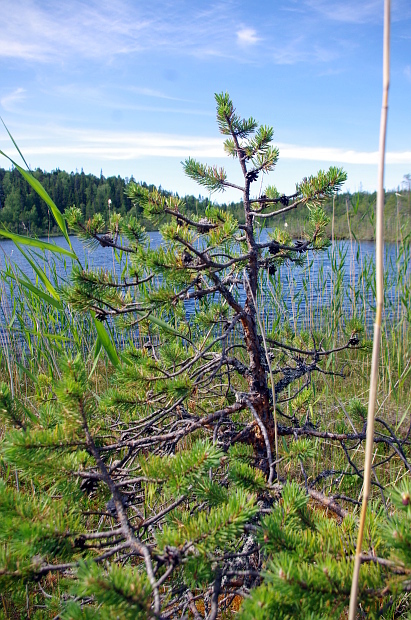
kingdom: Plantae
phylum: Tracheophyta
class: Pinopsida
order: Pinales
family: Pinaceae
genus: Pinus
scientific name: Pinus sylvestris
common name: Scots pine
